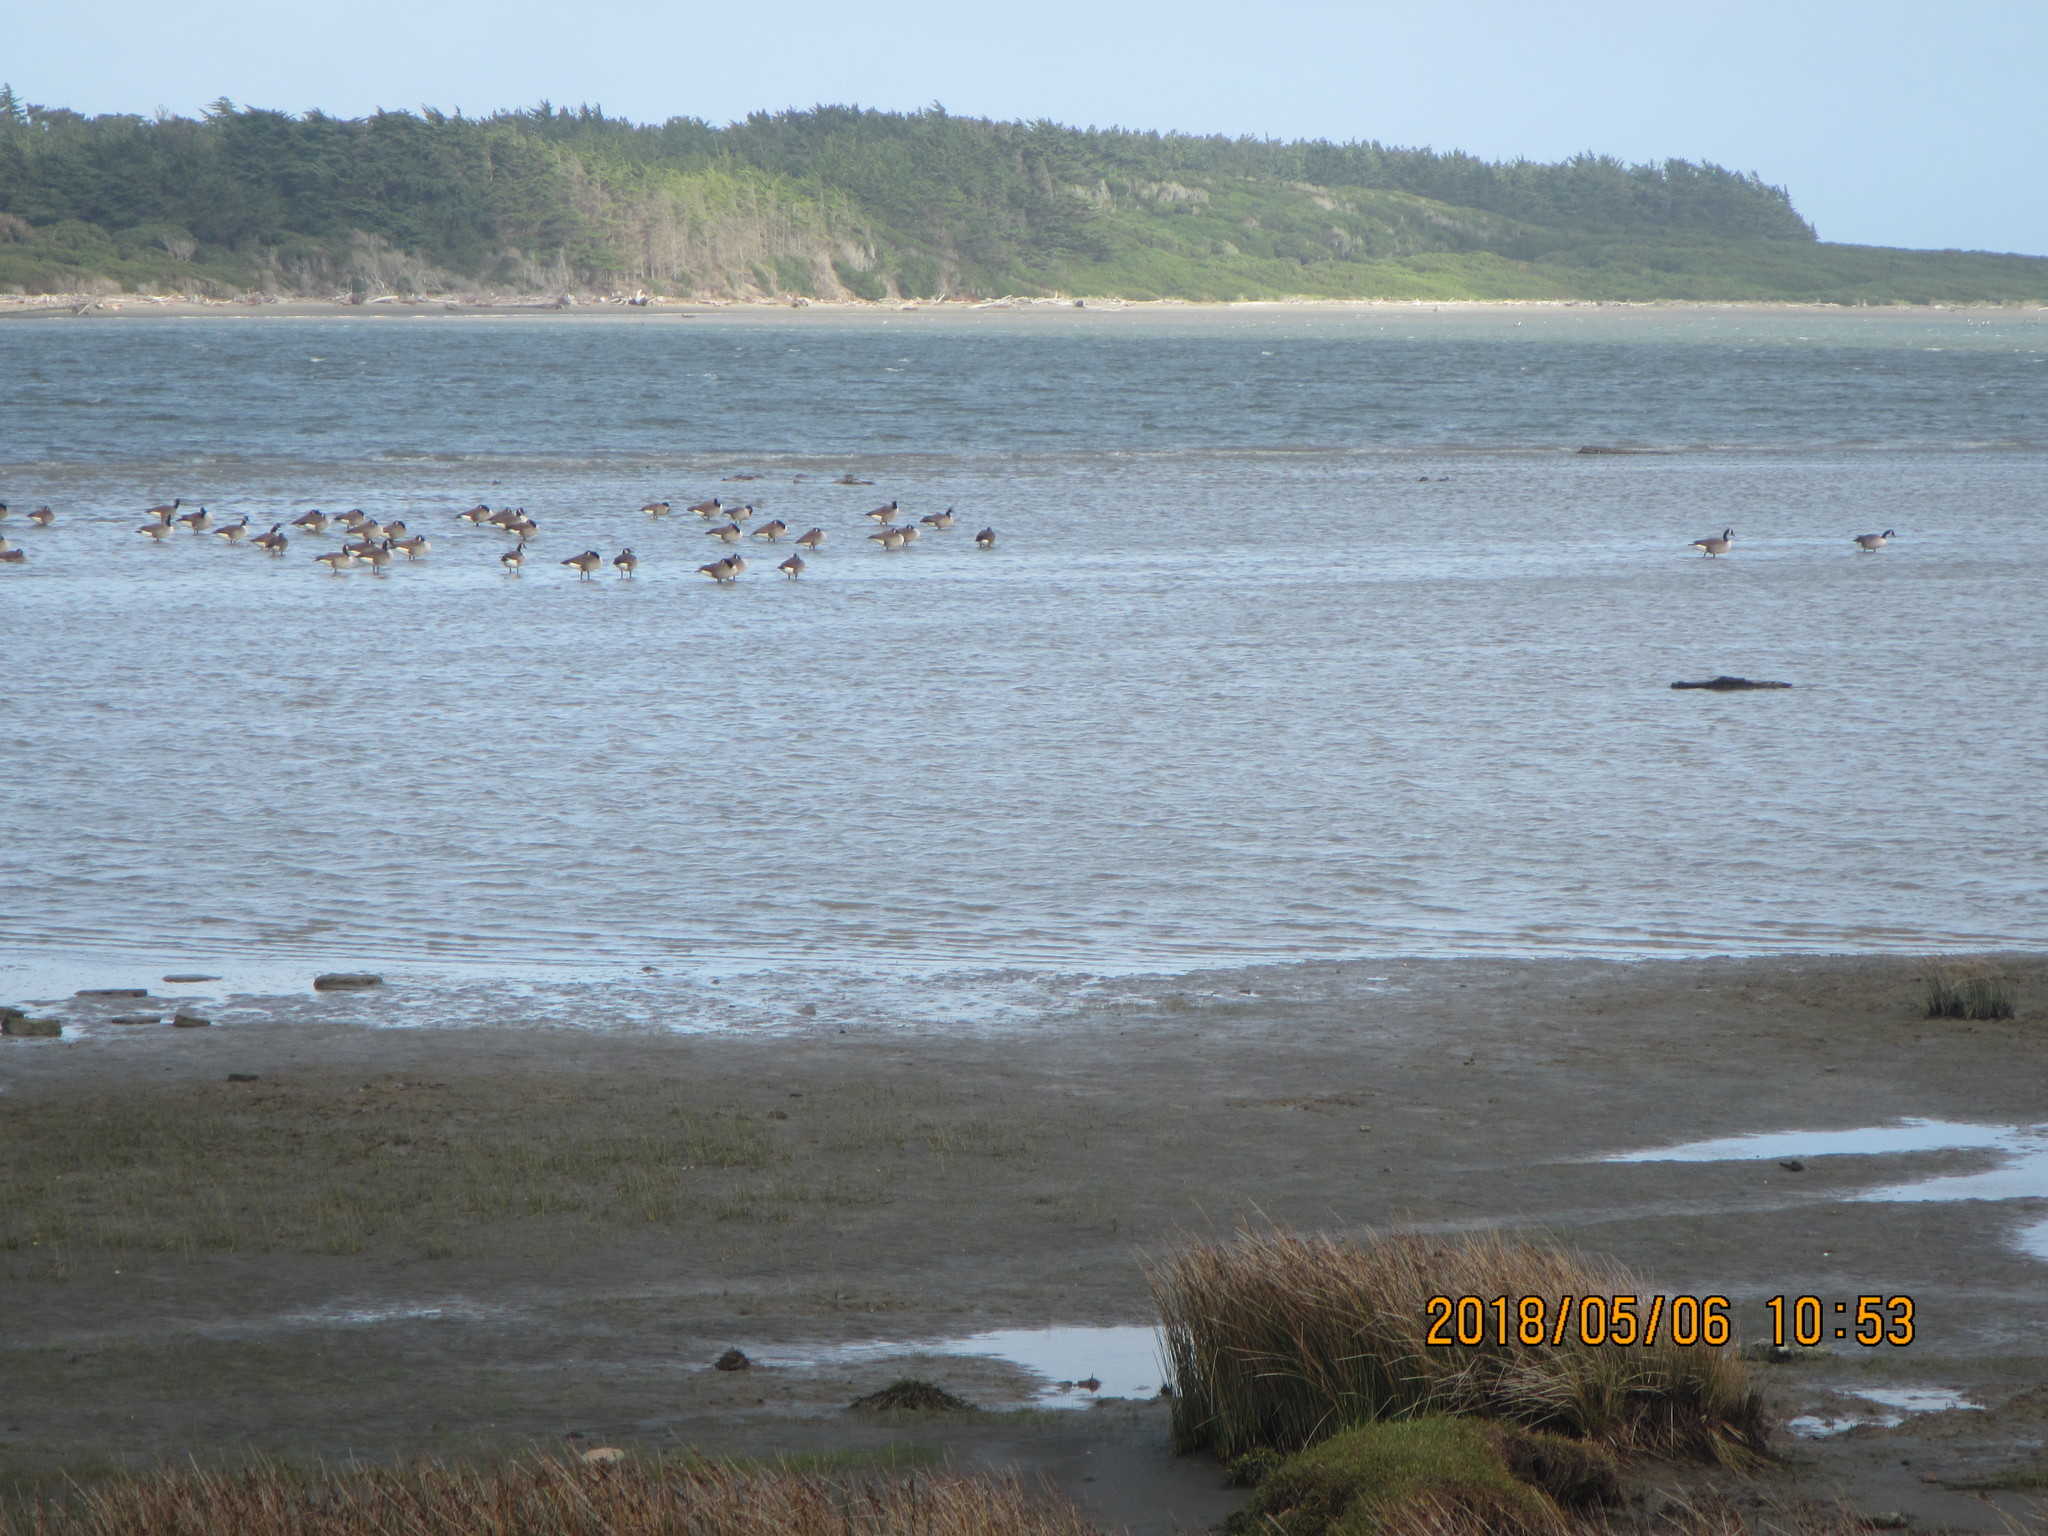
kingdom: Animalia
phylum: Chordata
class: Aves
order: Anseriformes
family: Anatidae
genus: Branta
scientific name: Branta canadensis
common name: Canada goose
